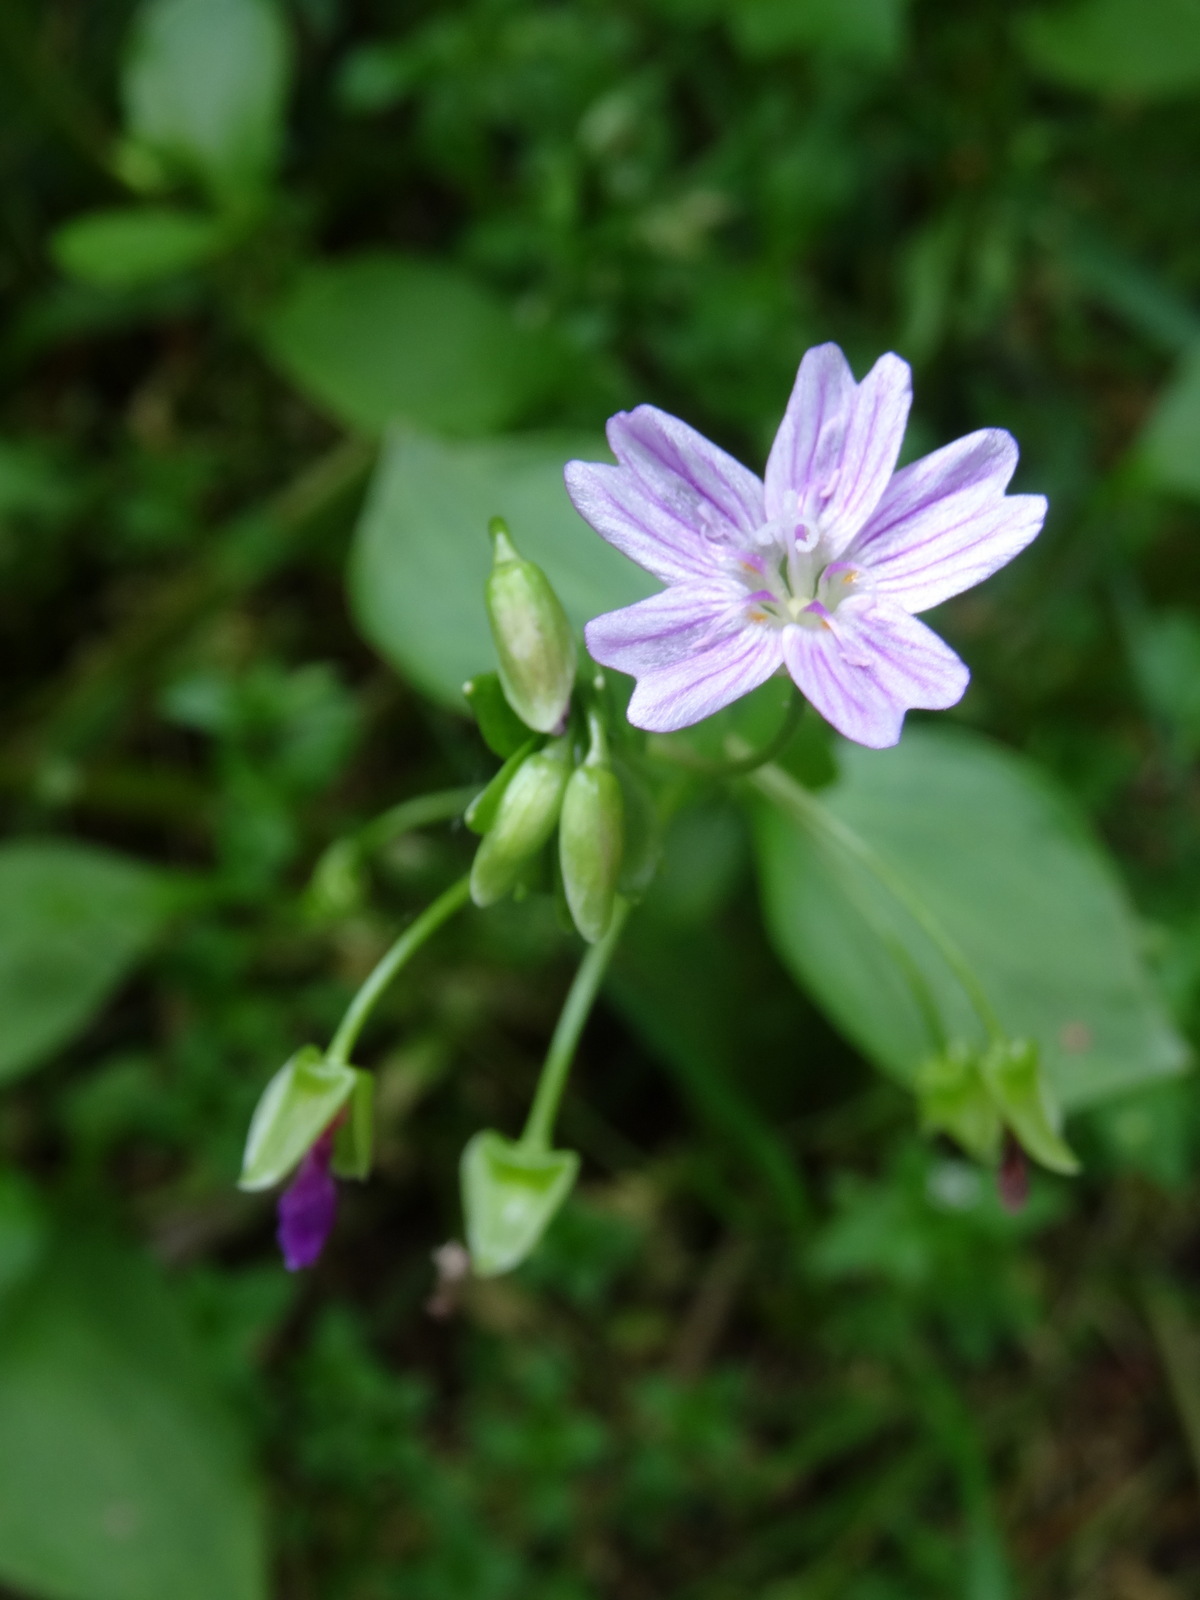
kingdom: Plantae
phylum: Tracheophyta
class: Magnoliopsida
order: Caryophyllales
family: Montiaceae
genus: Claytonia
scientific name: Claytonia sibirica
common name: Pink purslane
